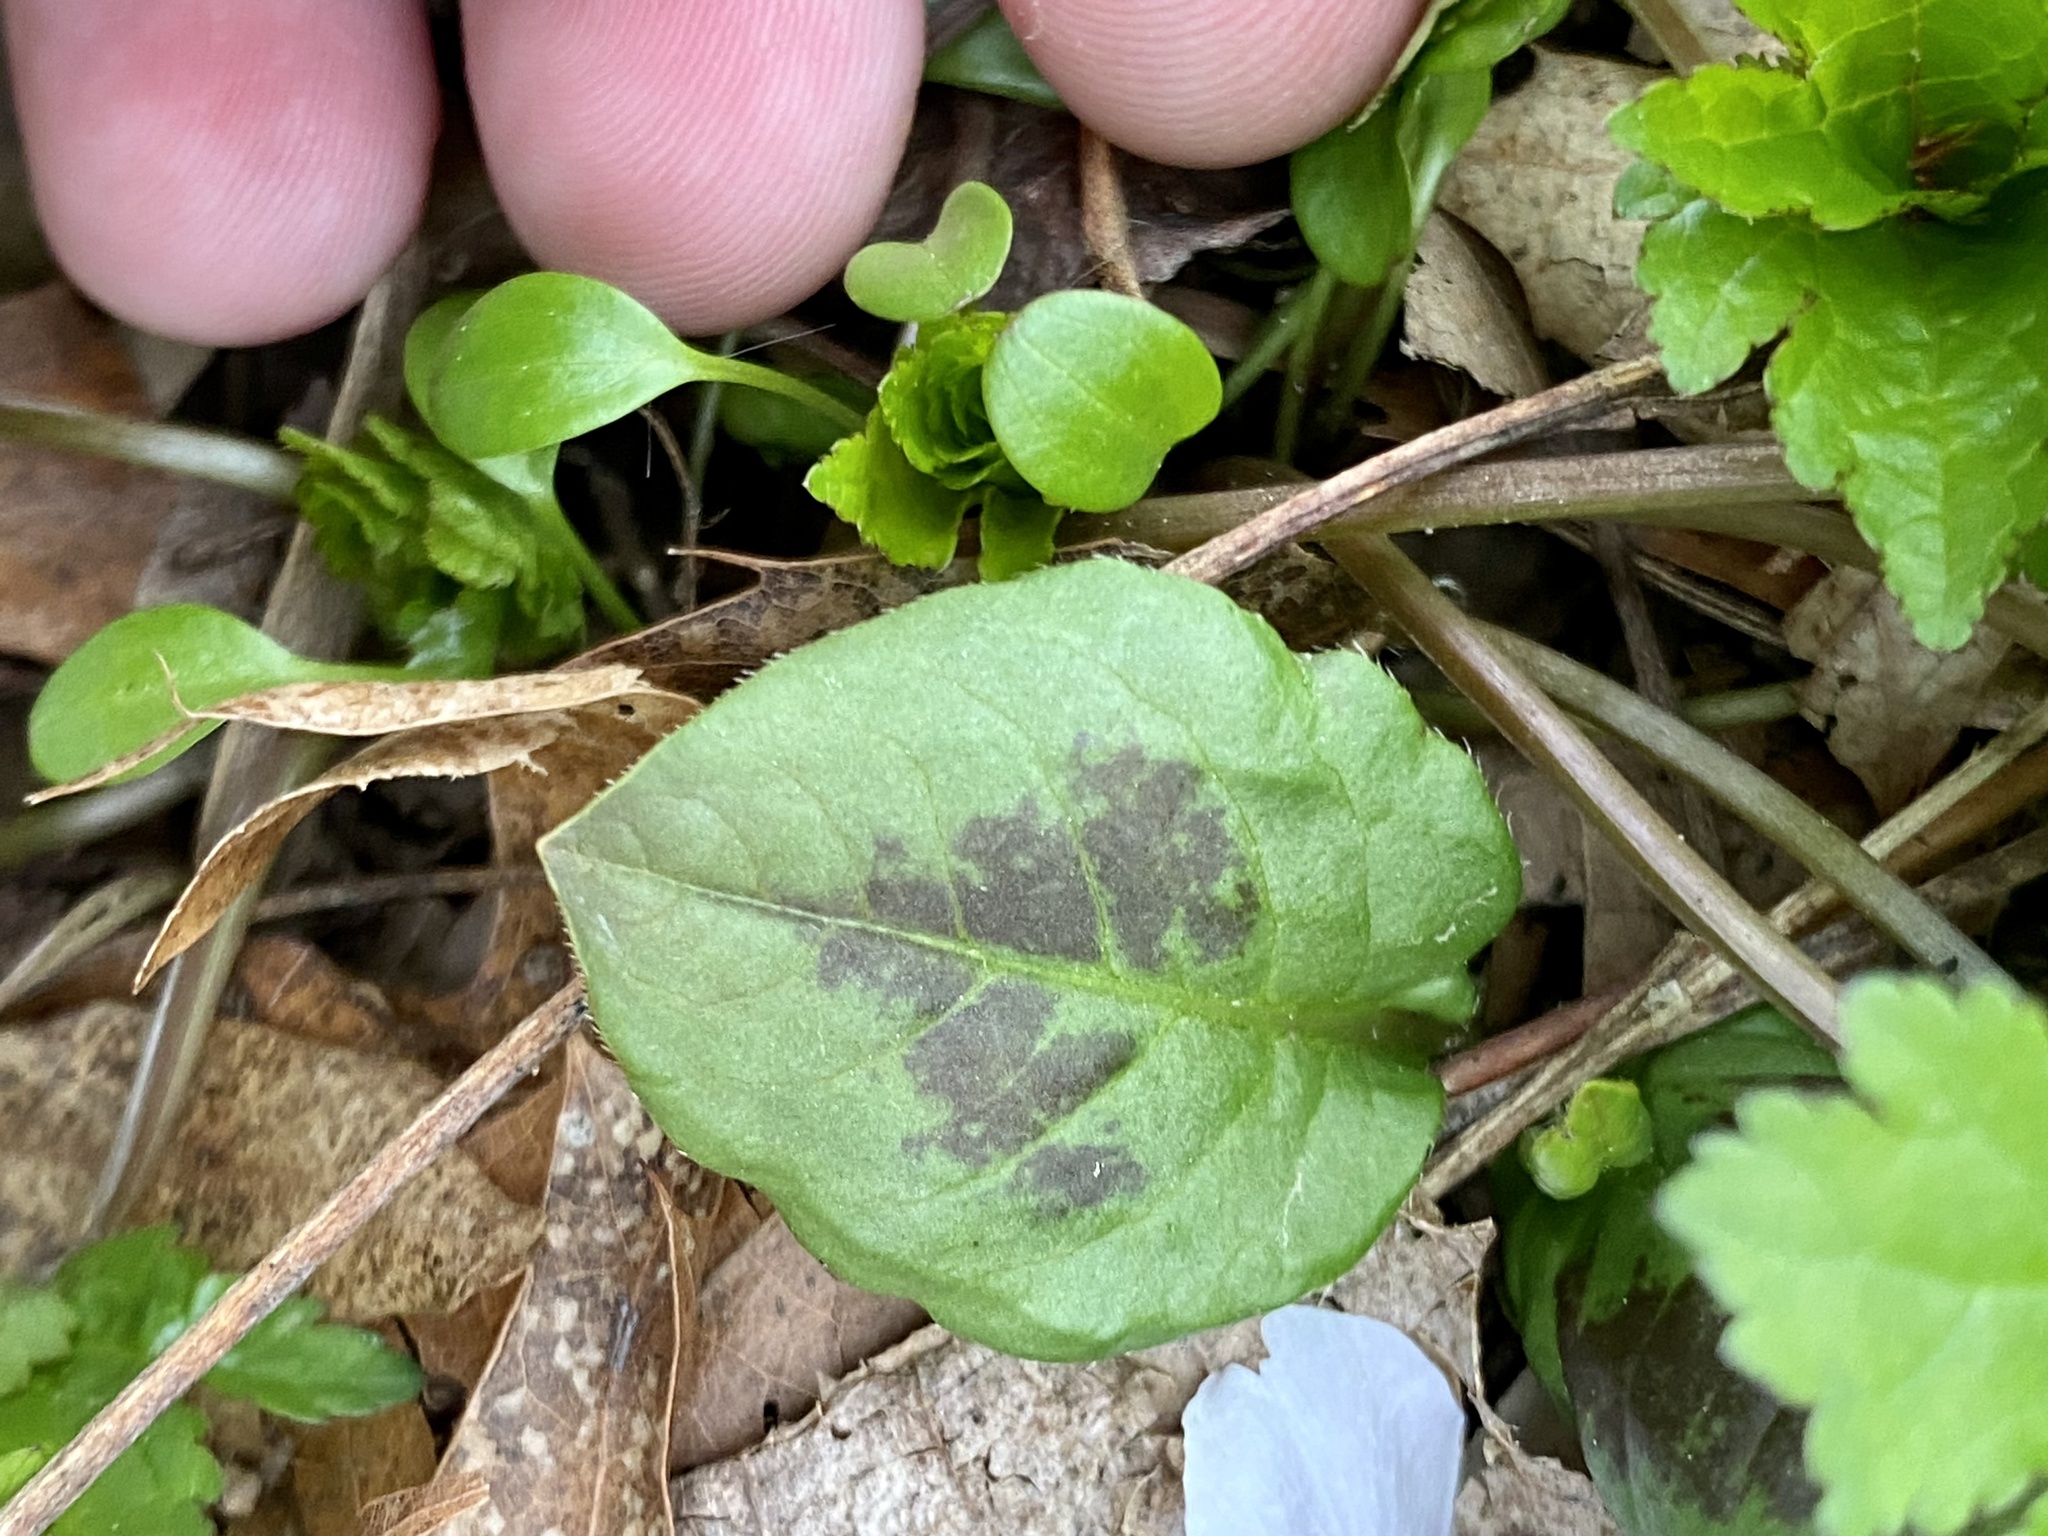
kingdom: Plantae
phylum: Tracheophyta
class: Magnoliopsida
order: Caryophyllales
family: Polygonaceae
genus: Persicaria
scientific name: Persicaria virginiana
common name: Jumpseed
